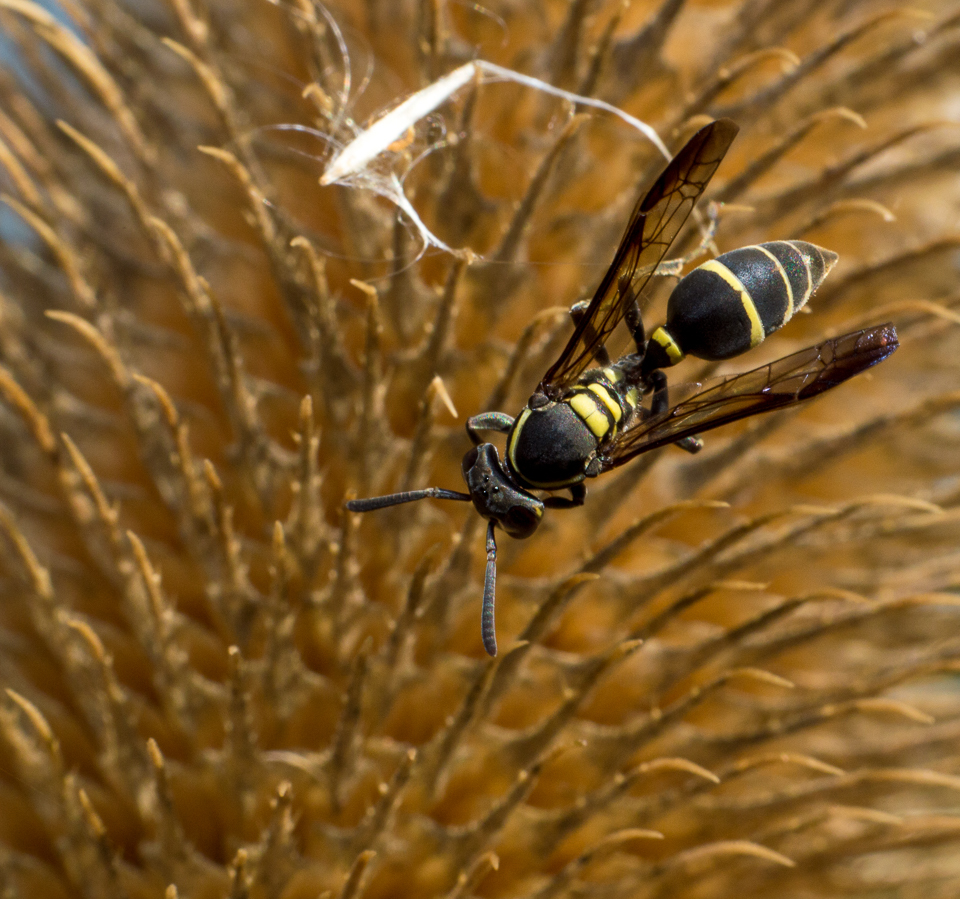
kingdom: Animalia
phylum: Arthropoda
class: Insecta
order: Hymenoptera
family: Eumenidae
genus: Polybia
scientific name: Polybia occidentalis
